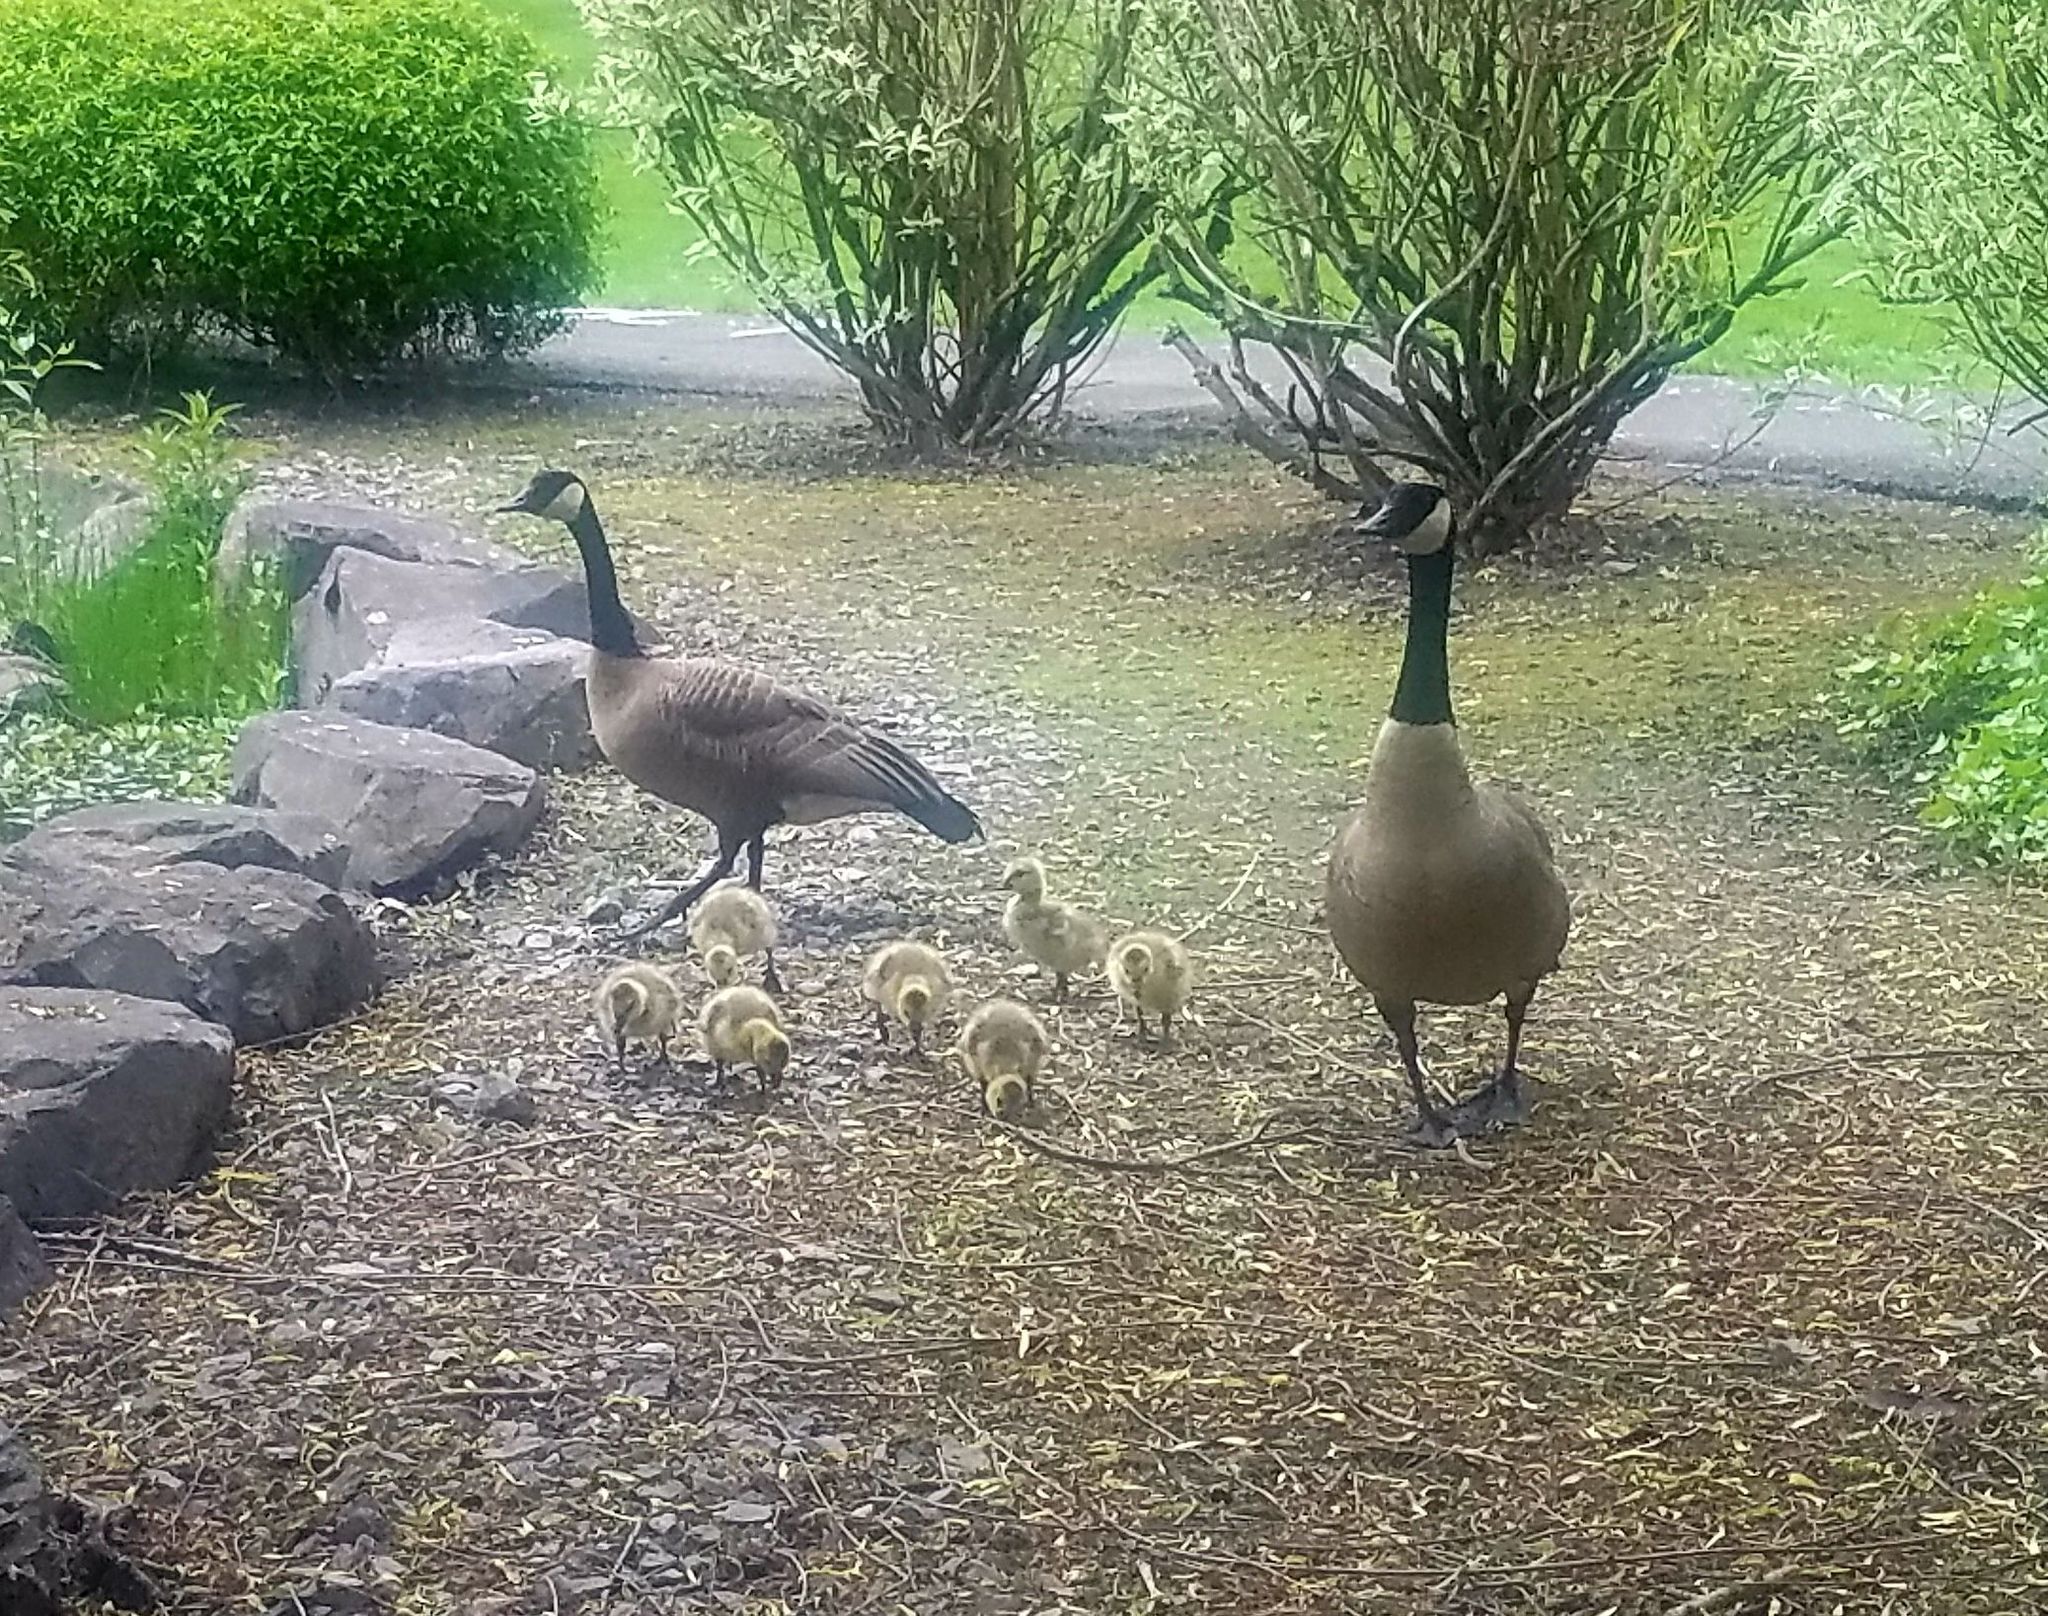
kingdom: Animalia
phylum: Chordata
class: Aves
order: Anseriformes
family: Anatidae
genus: Branta
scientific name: Branta canadensis
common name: Canada goose
